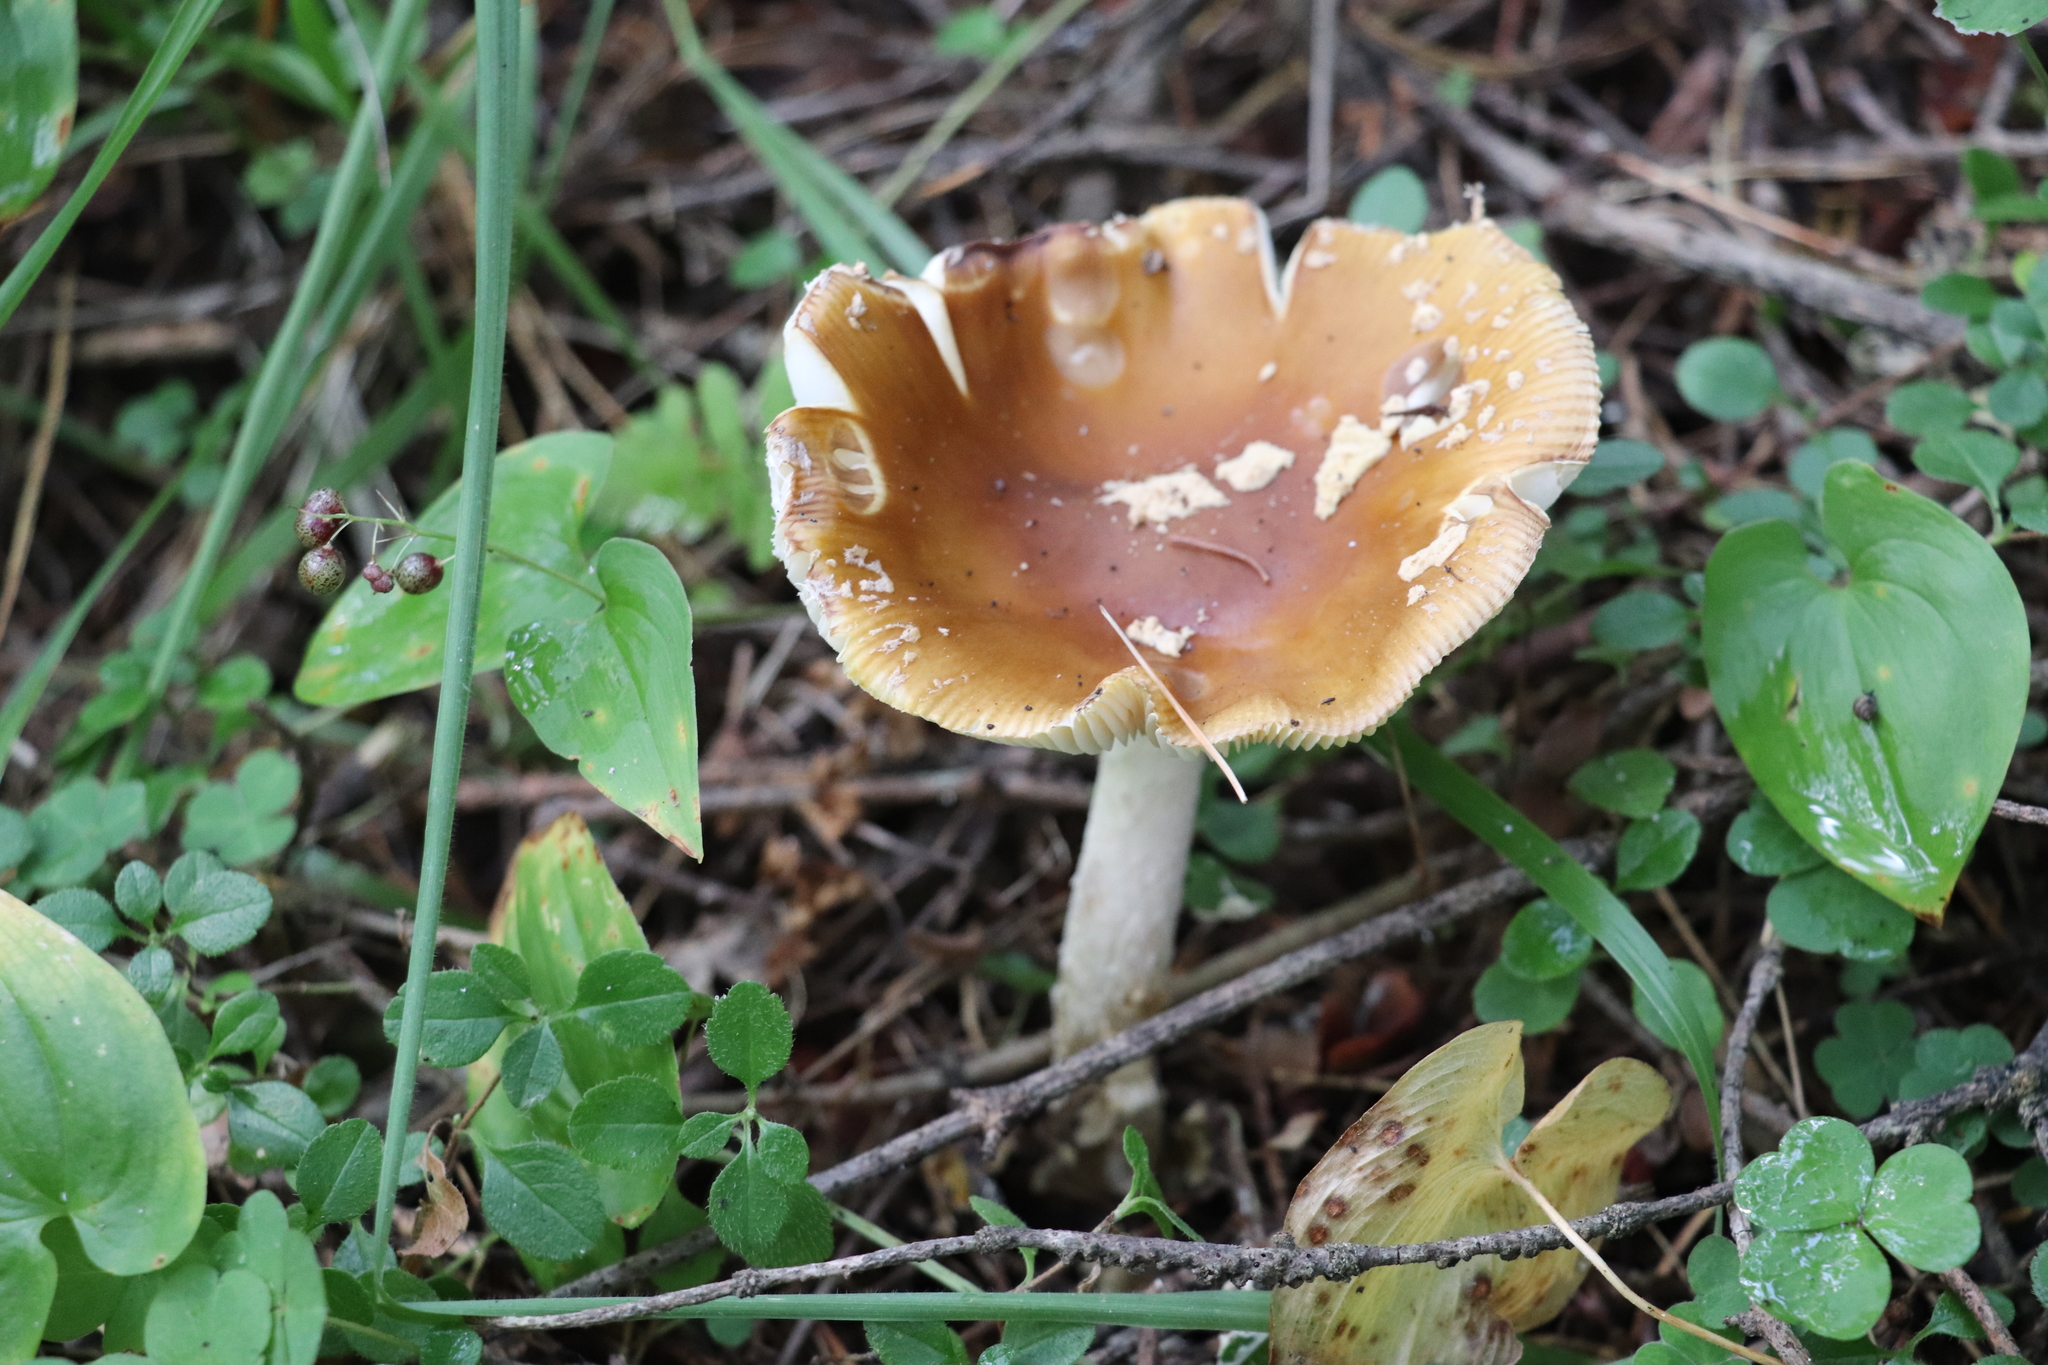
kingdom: Fungi
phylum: Basidiomycota
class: Agaricomycetes
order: Agaricales
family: Amanitaceae
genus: Amanita
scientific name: Amanita regalis
